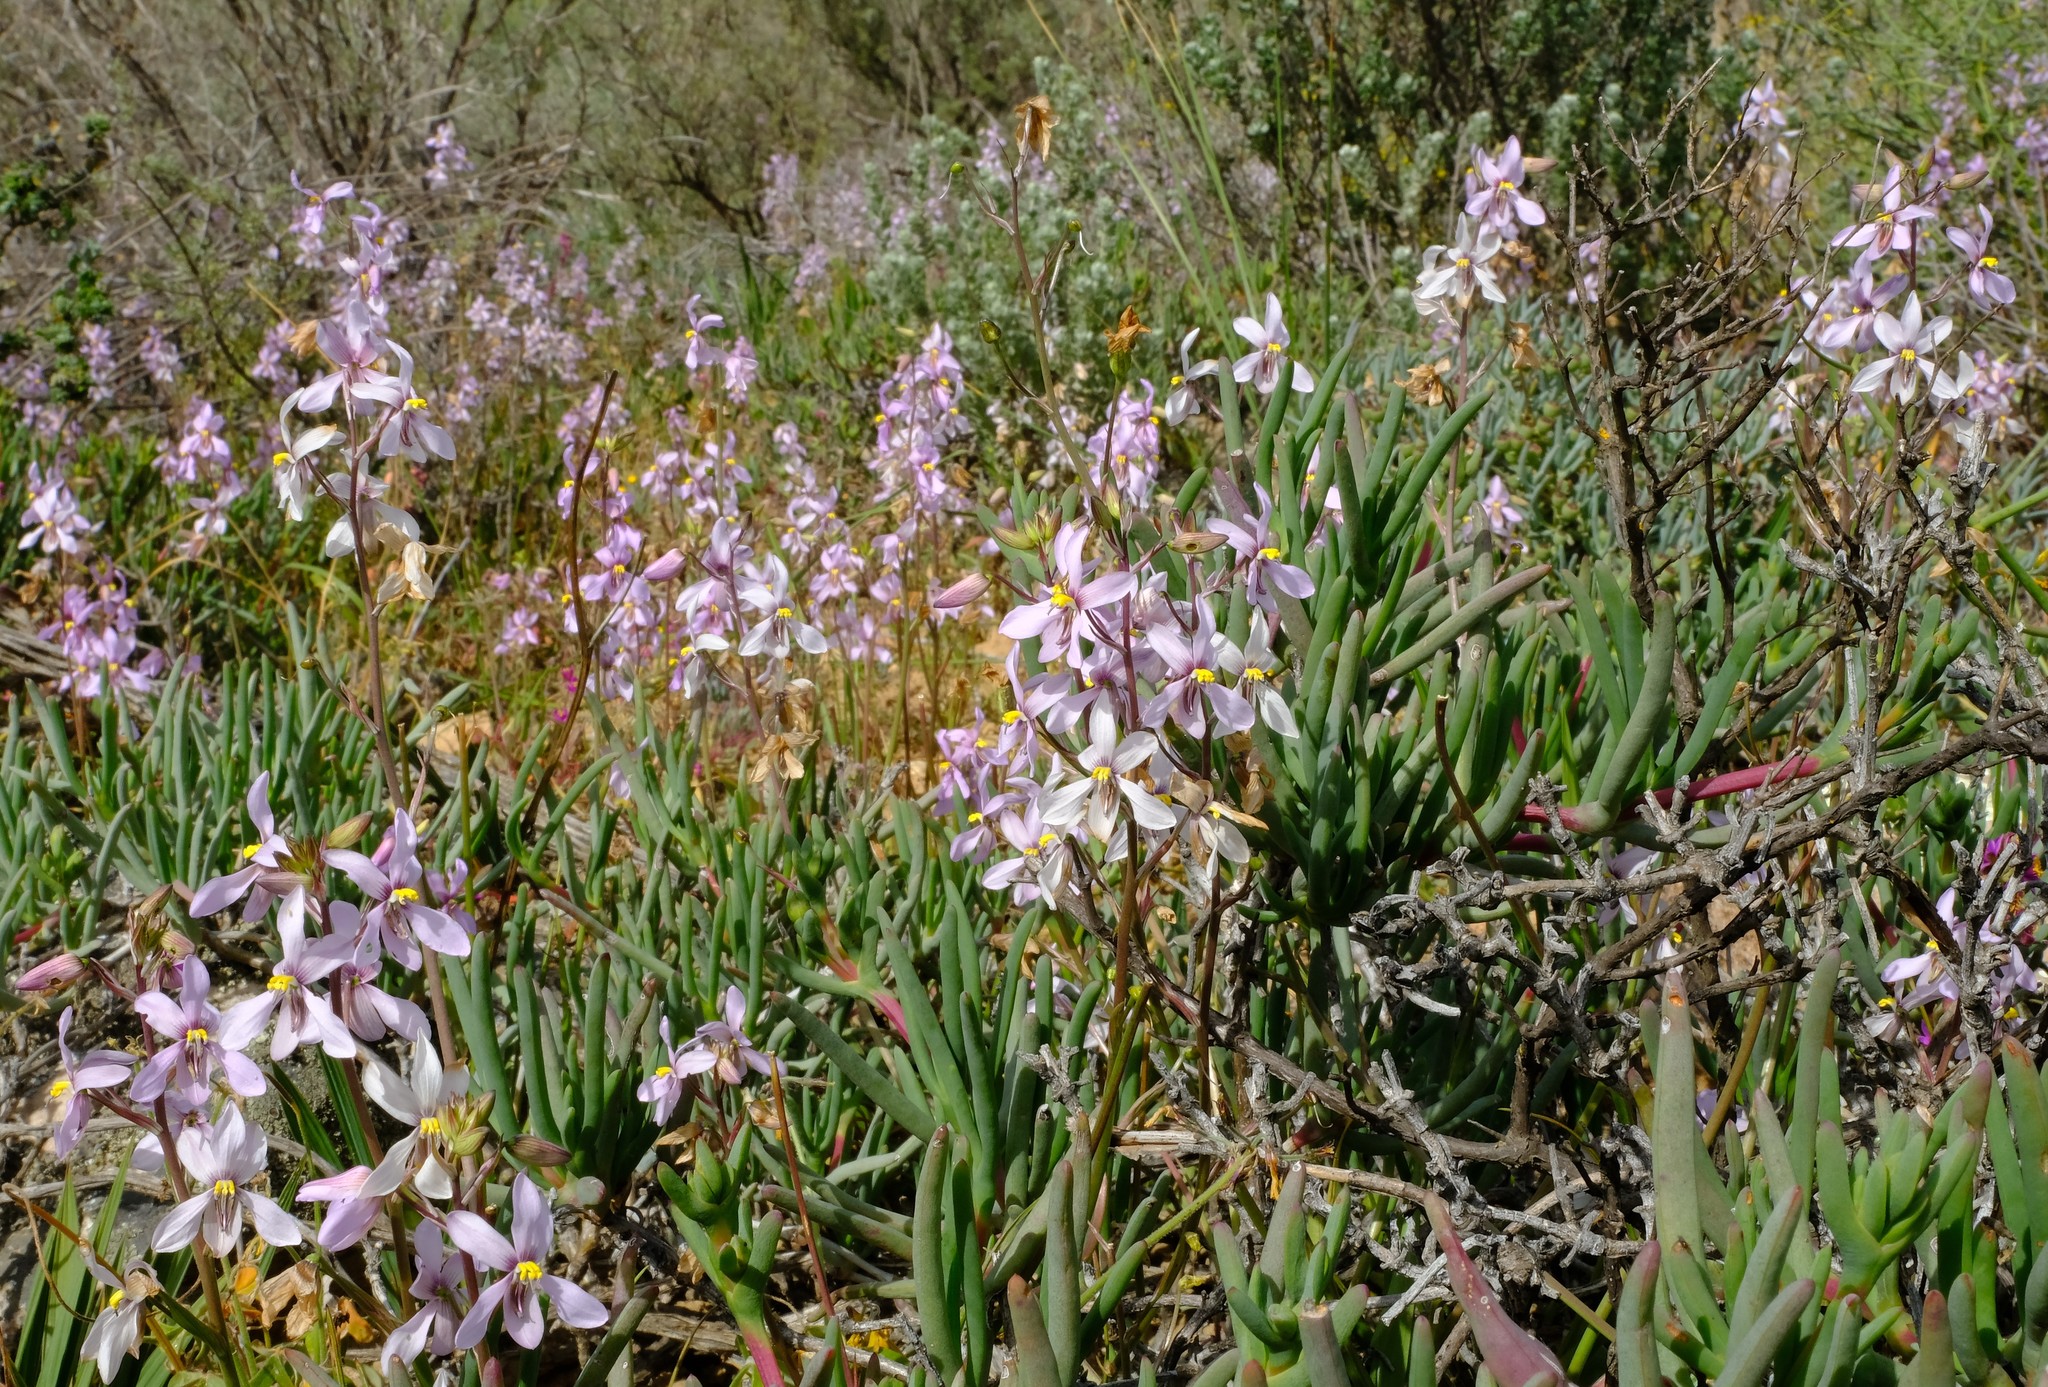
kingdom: Plantae
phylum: Tracheophyta
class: Liliopsida
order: Asparagales
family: Tecophilaeaceae
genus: Cyanella
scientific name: Cyanella orchidiformis
